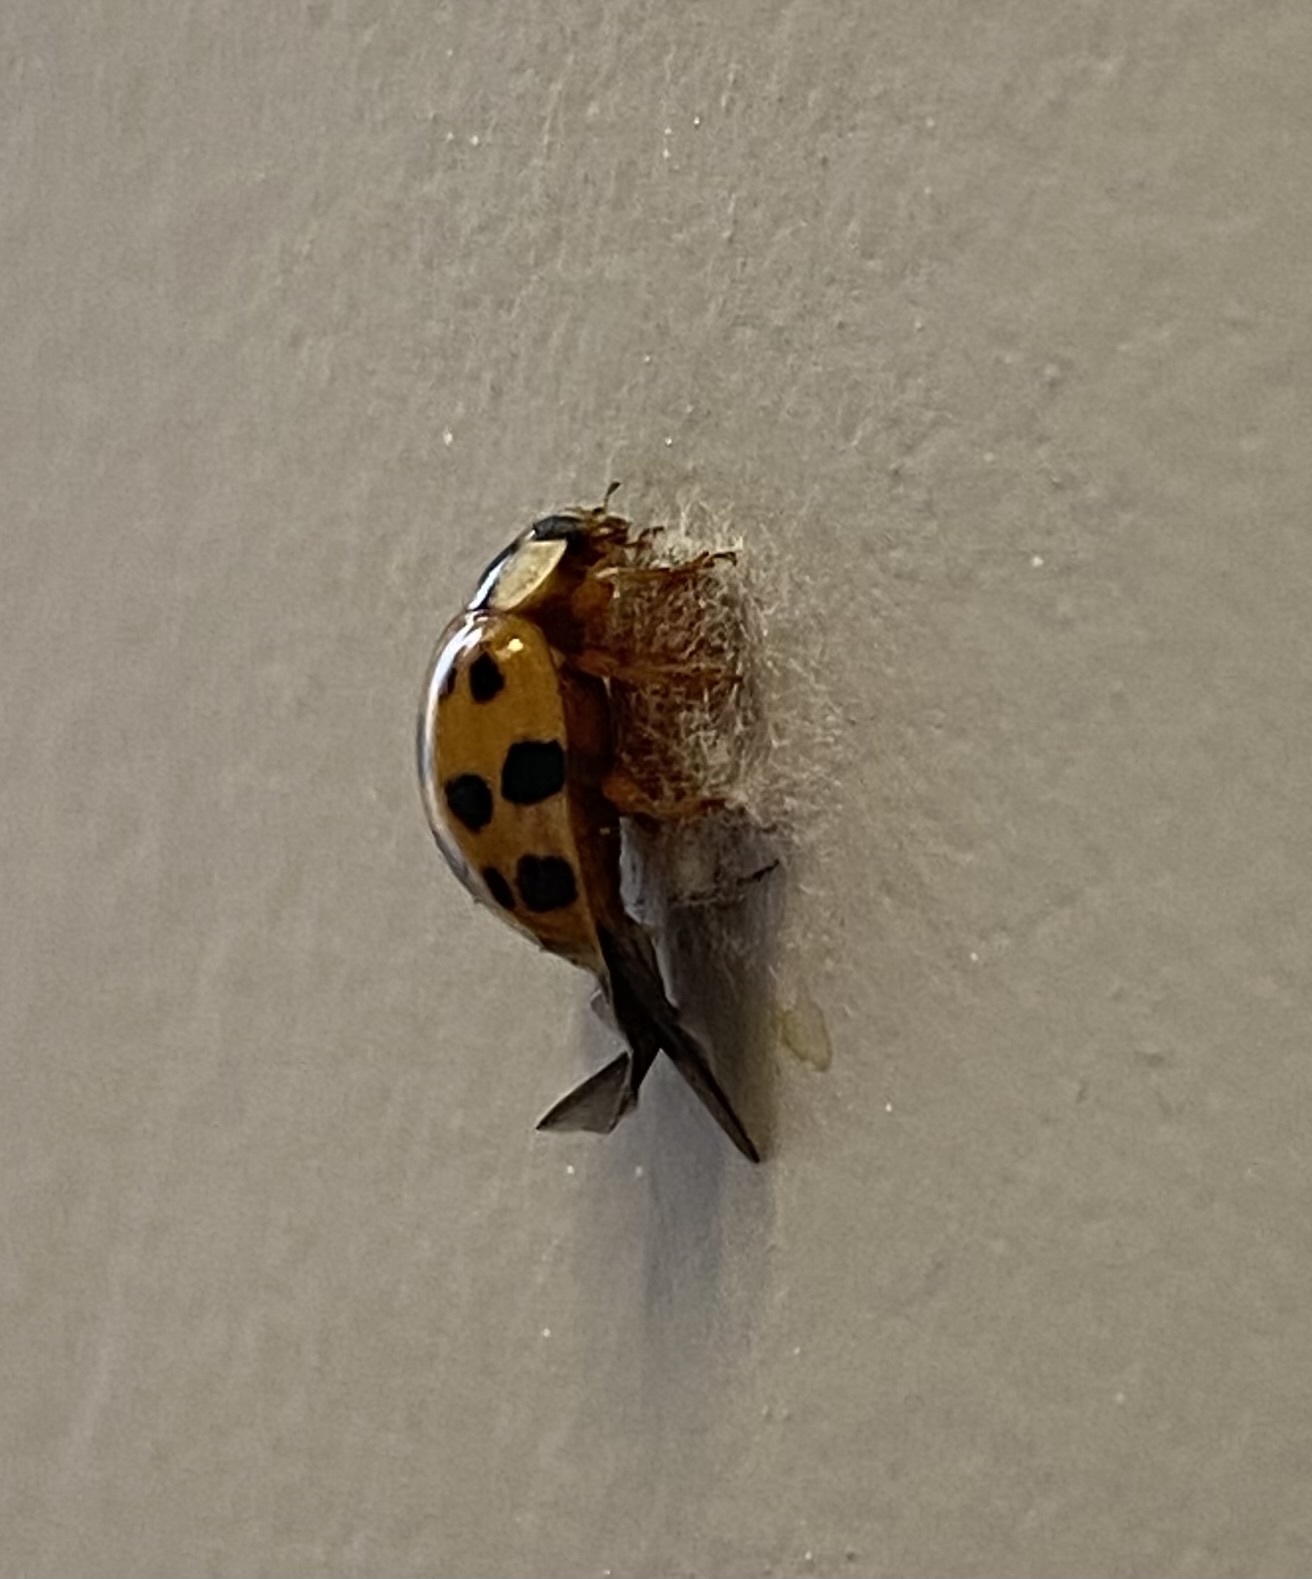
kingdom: Animalia
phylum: Arthropoda
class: Insecta
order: Coleoptera
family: Coccinellidae
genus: Harmonia
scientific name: Harmonia axyridis
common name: Harlequin ladybird
